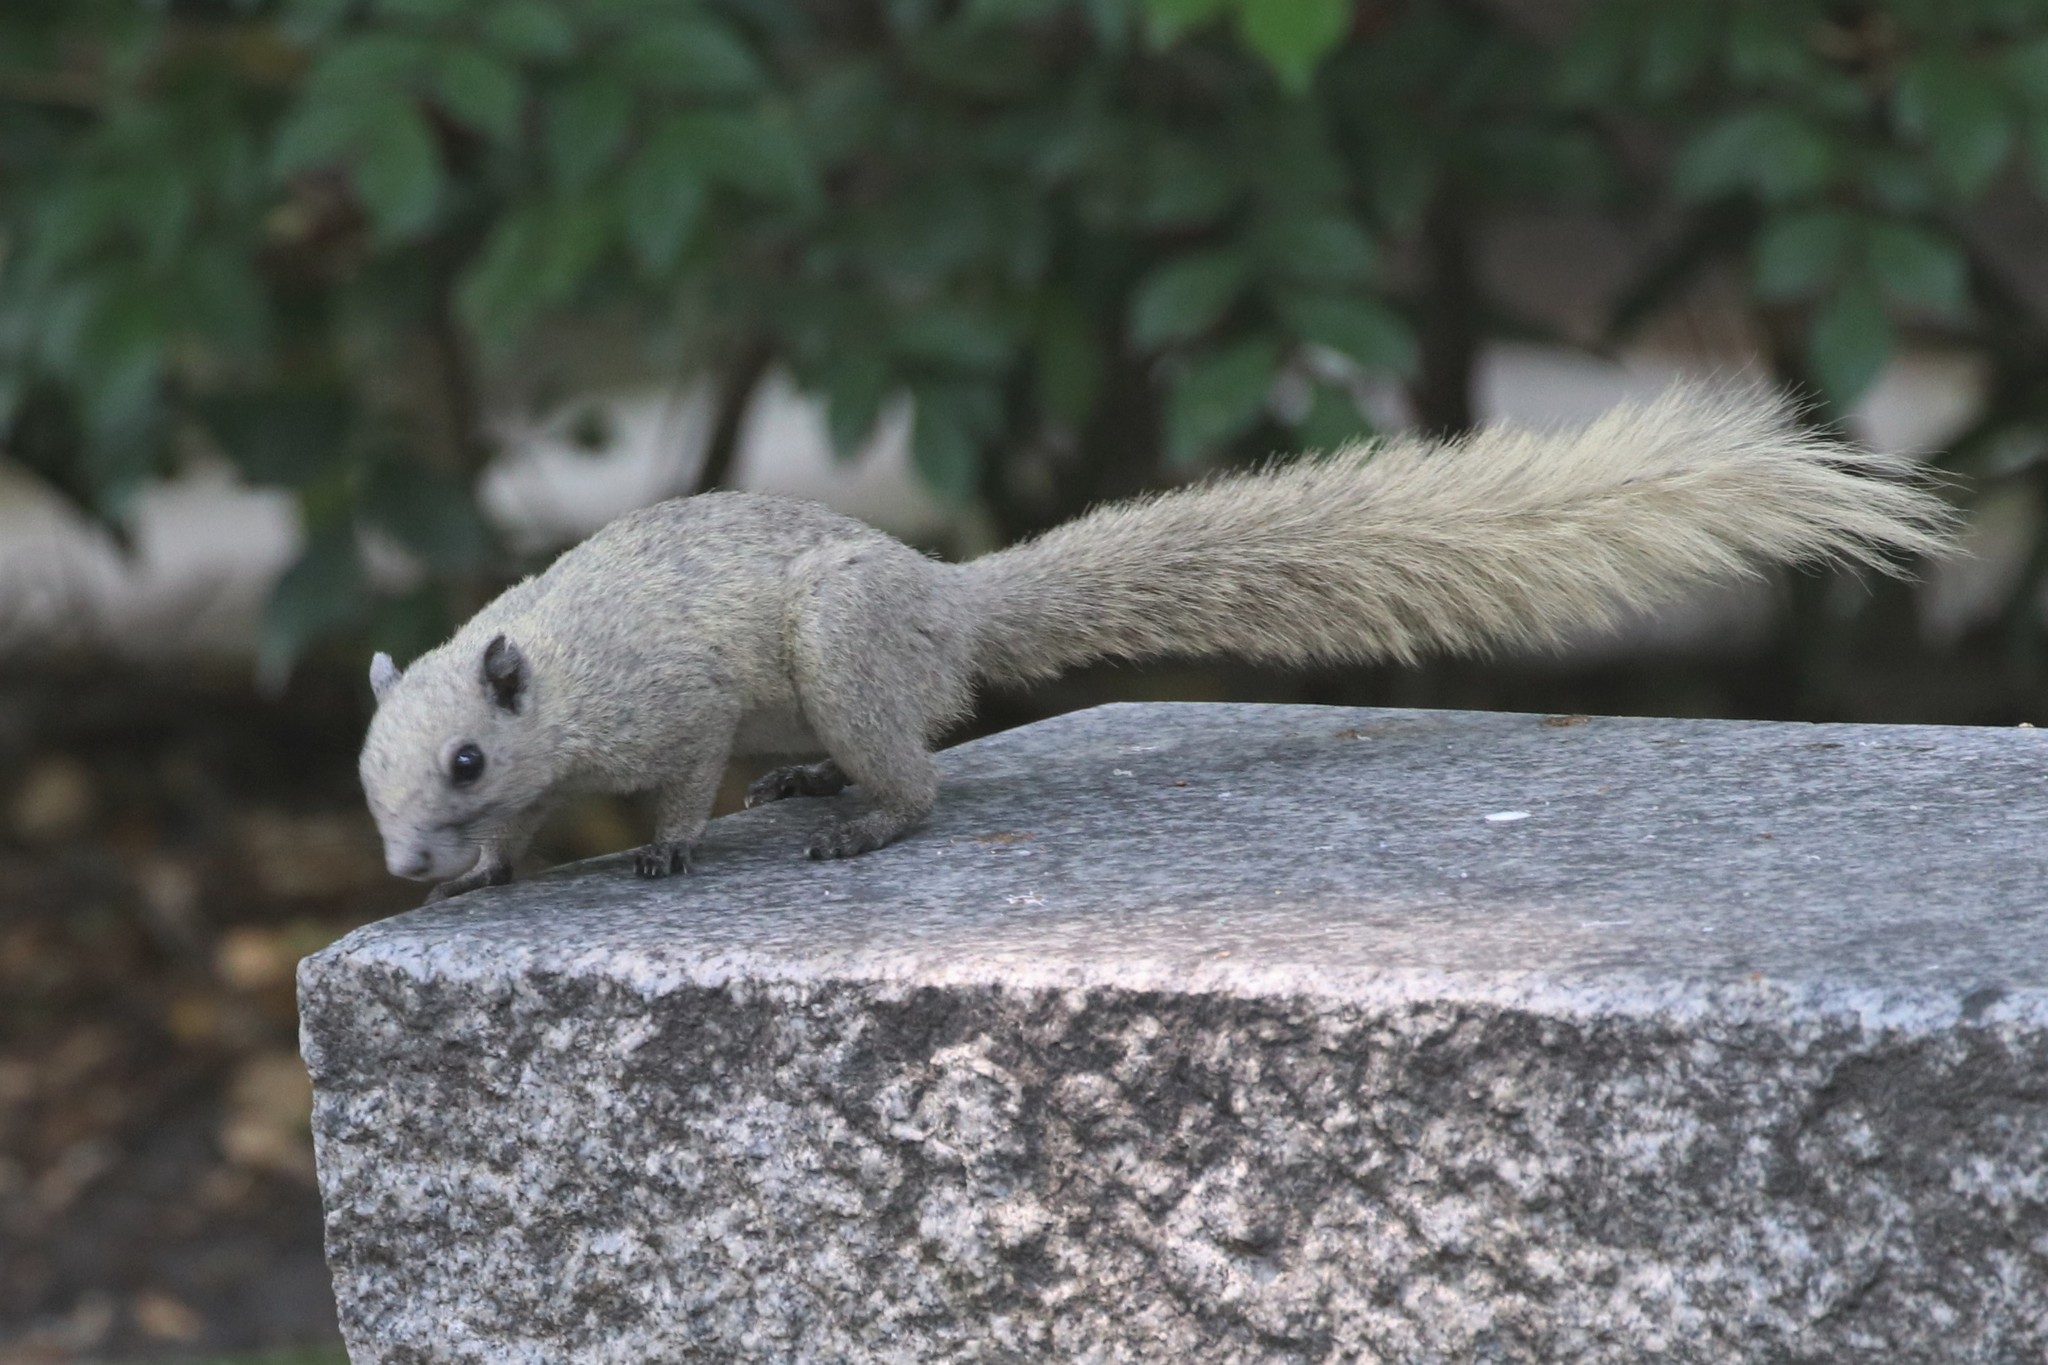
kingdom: Animalia
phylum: Chordata
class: Mammalia
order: Rodentia
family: Sciuridae
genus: Callosciurus
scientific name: Callosciurus erythraeus
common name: Pallas's squirrel
